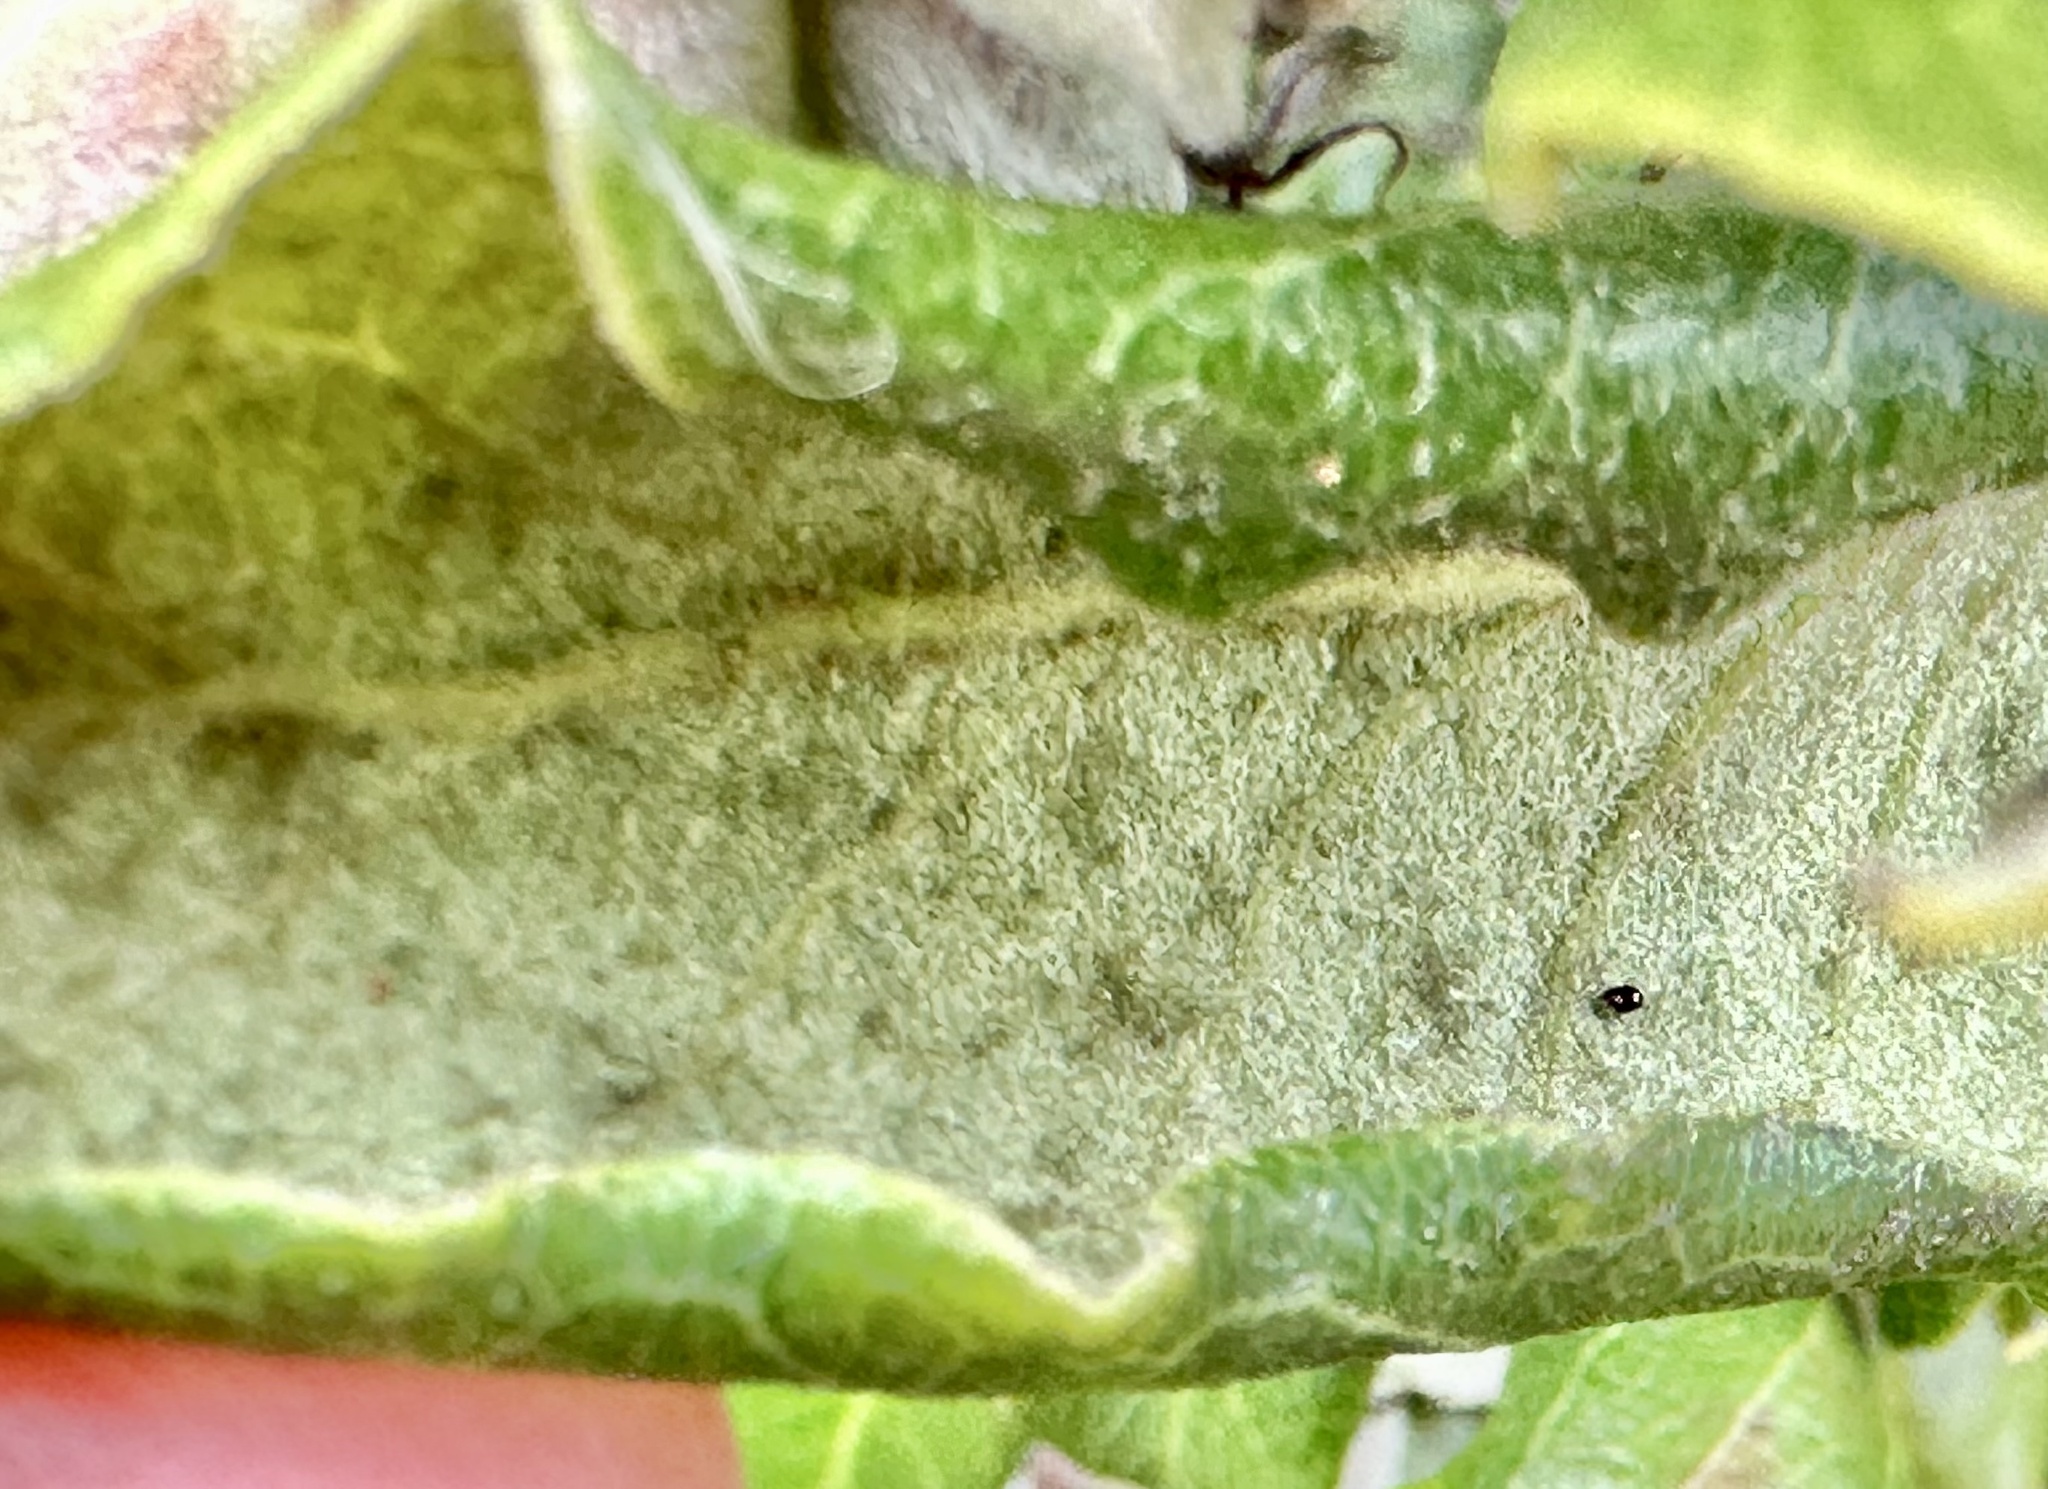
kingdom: Plantae
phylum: Tracheophyta
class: Magnoliopsida
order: Garryales
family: Garryaceae
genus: Garrya
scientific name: Garrya elliptica
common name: Silk-tassel
